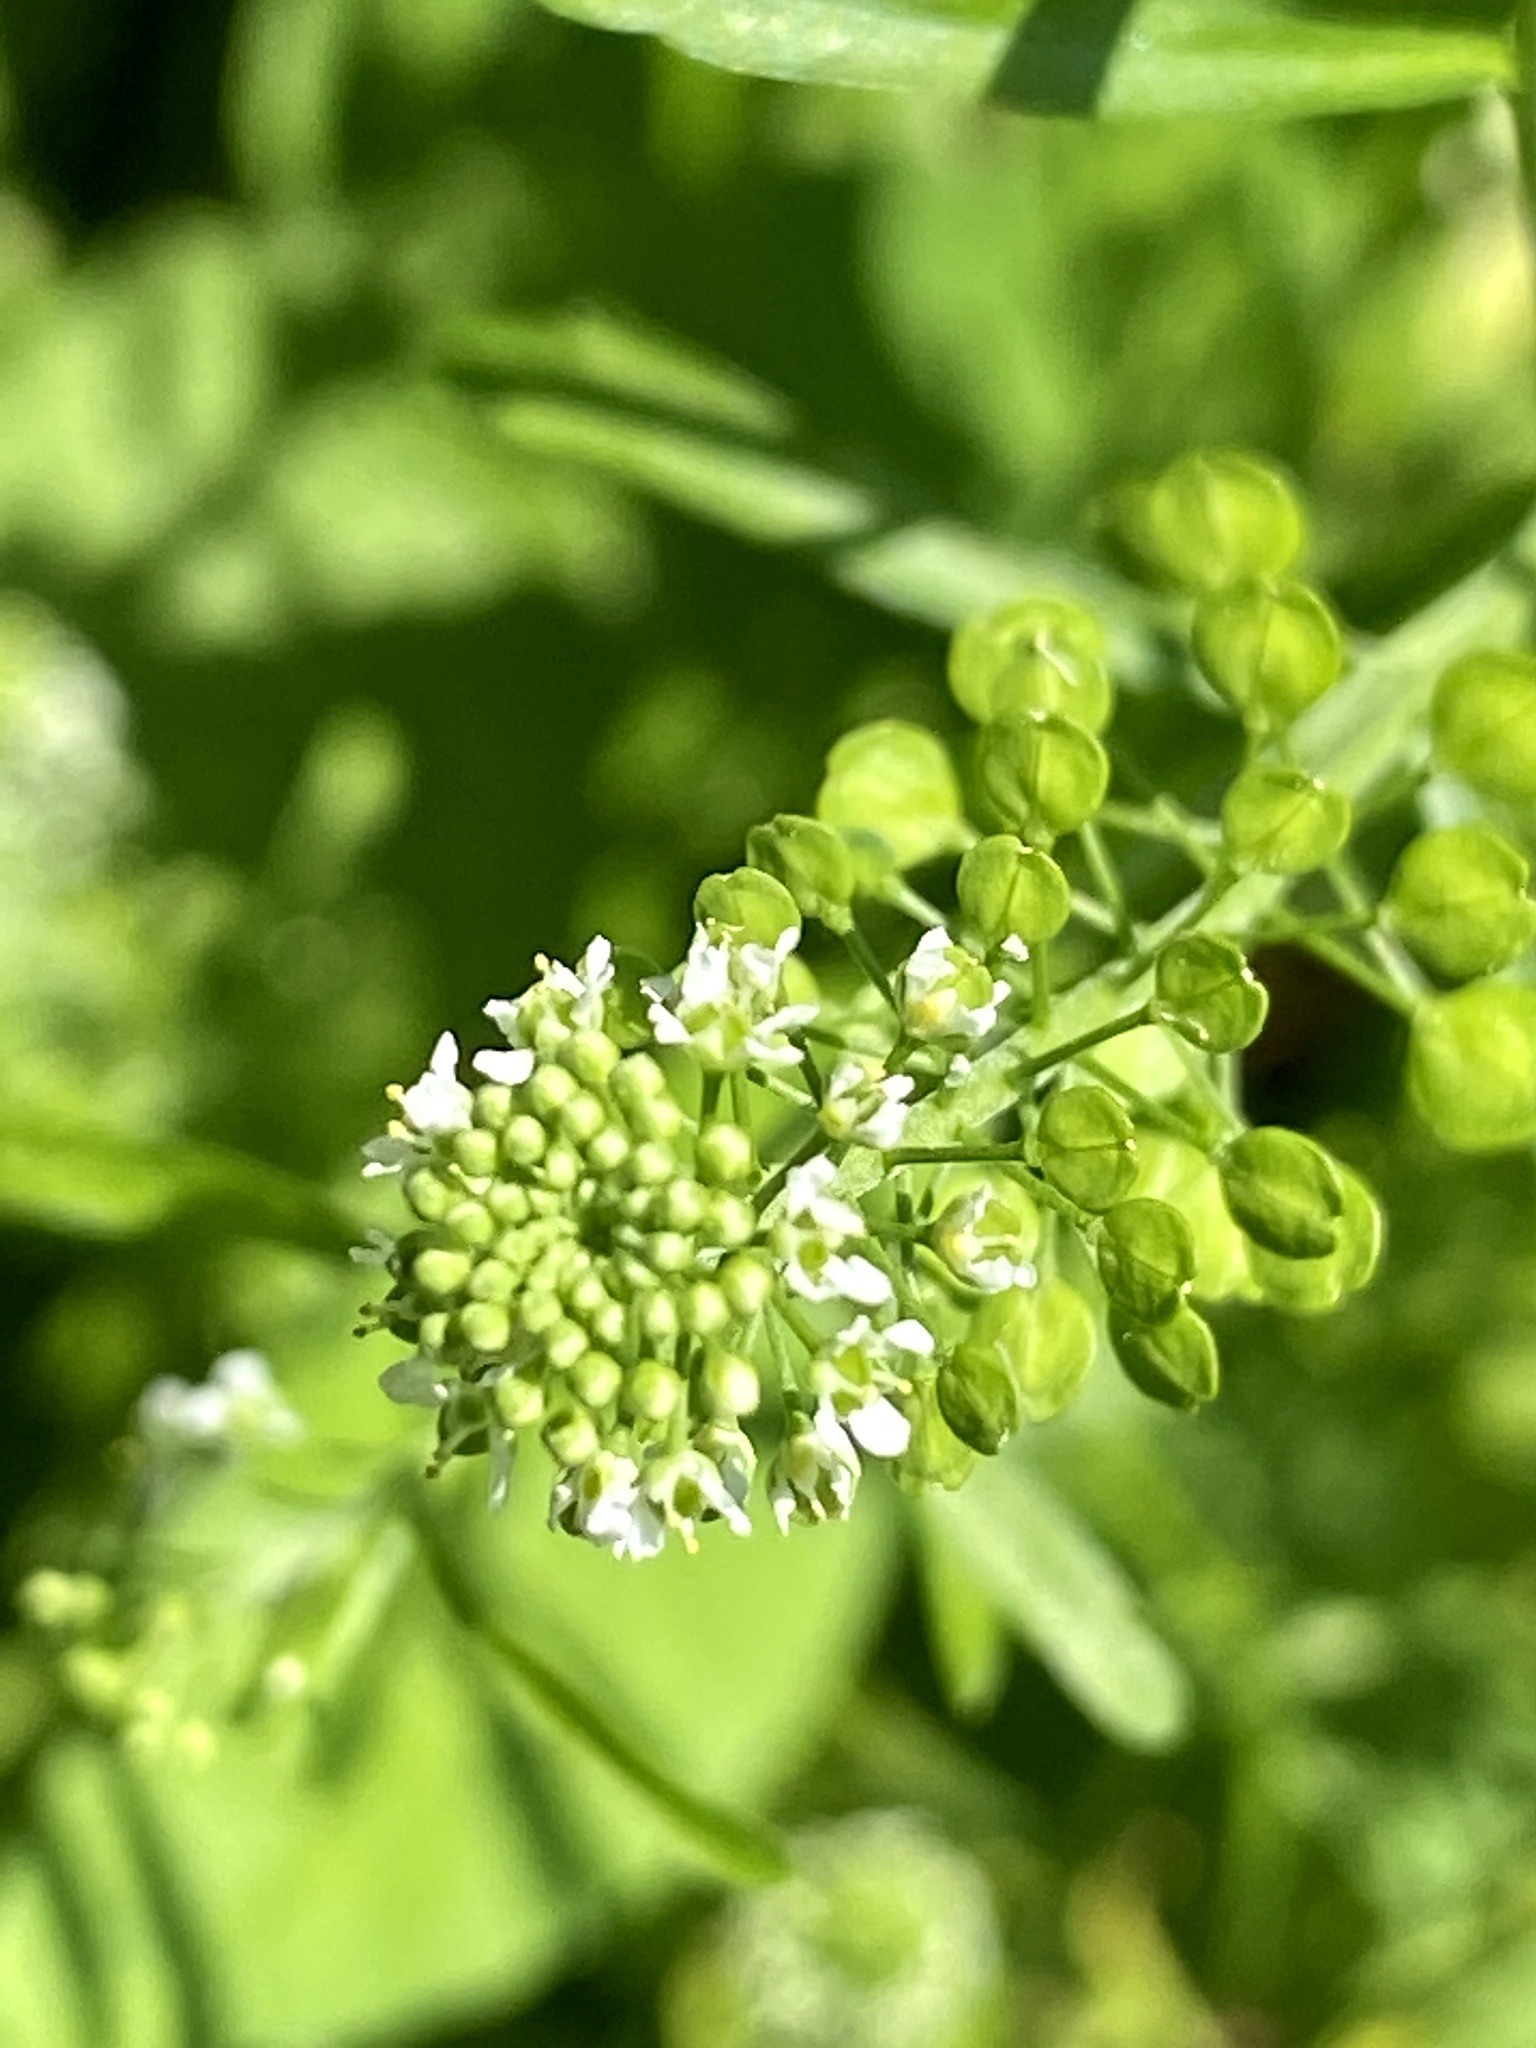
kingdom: Plantae
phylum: Tracheophyta
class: Magnoliopsida
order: Brassicales
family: Brassicaceae
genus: Lepidium
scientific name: Lepidium virginicum
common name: Least pepperwort
